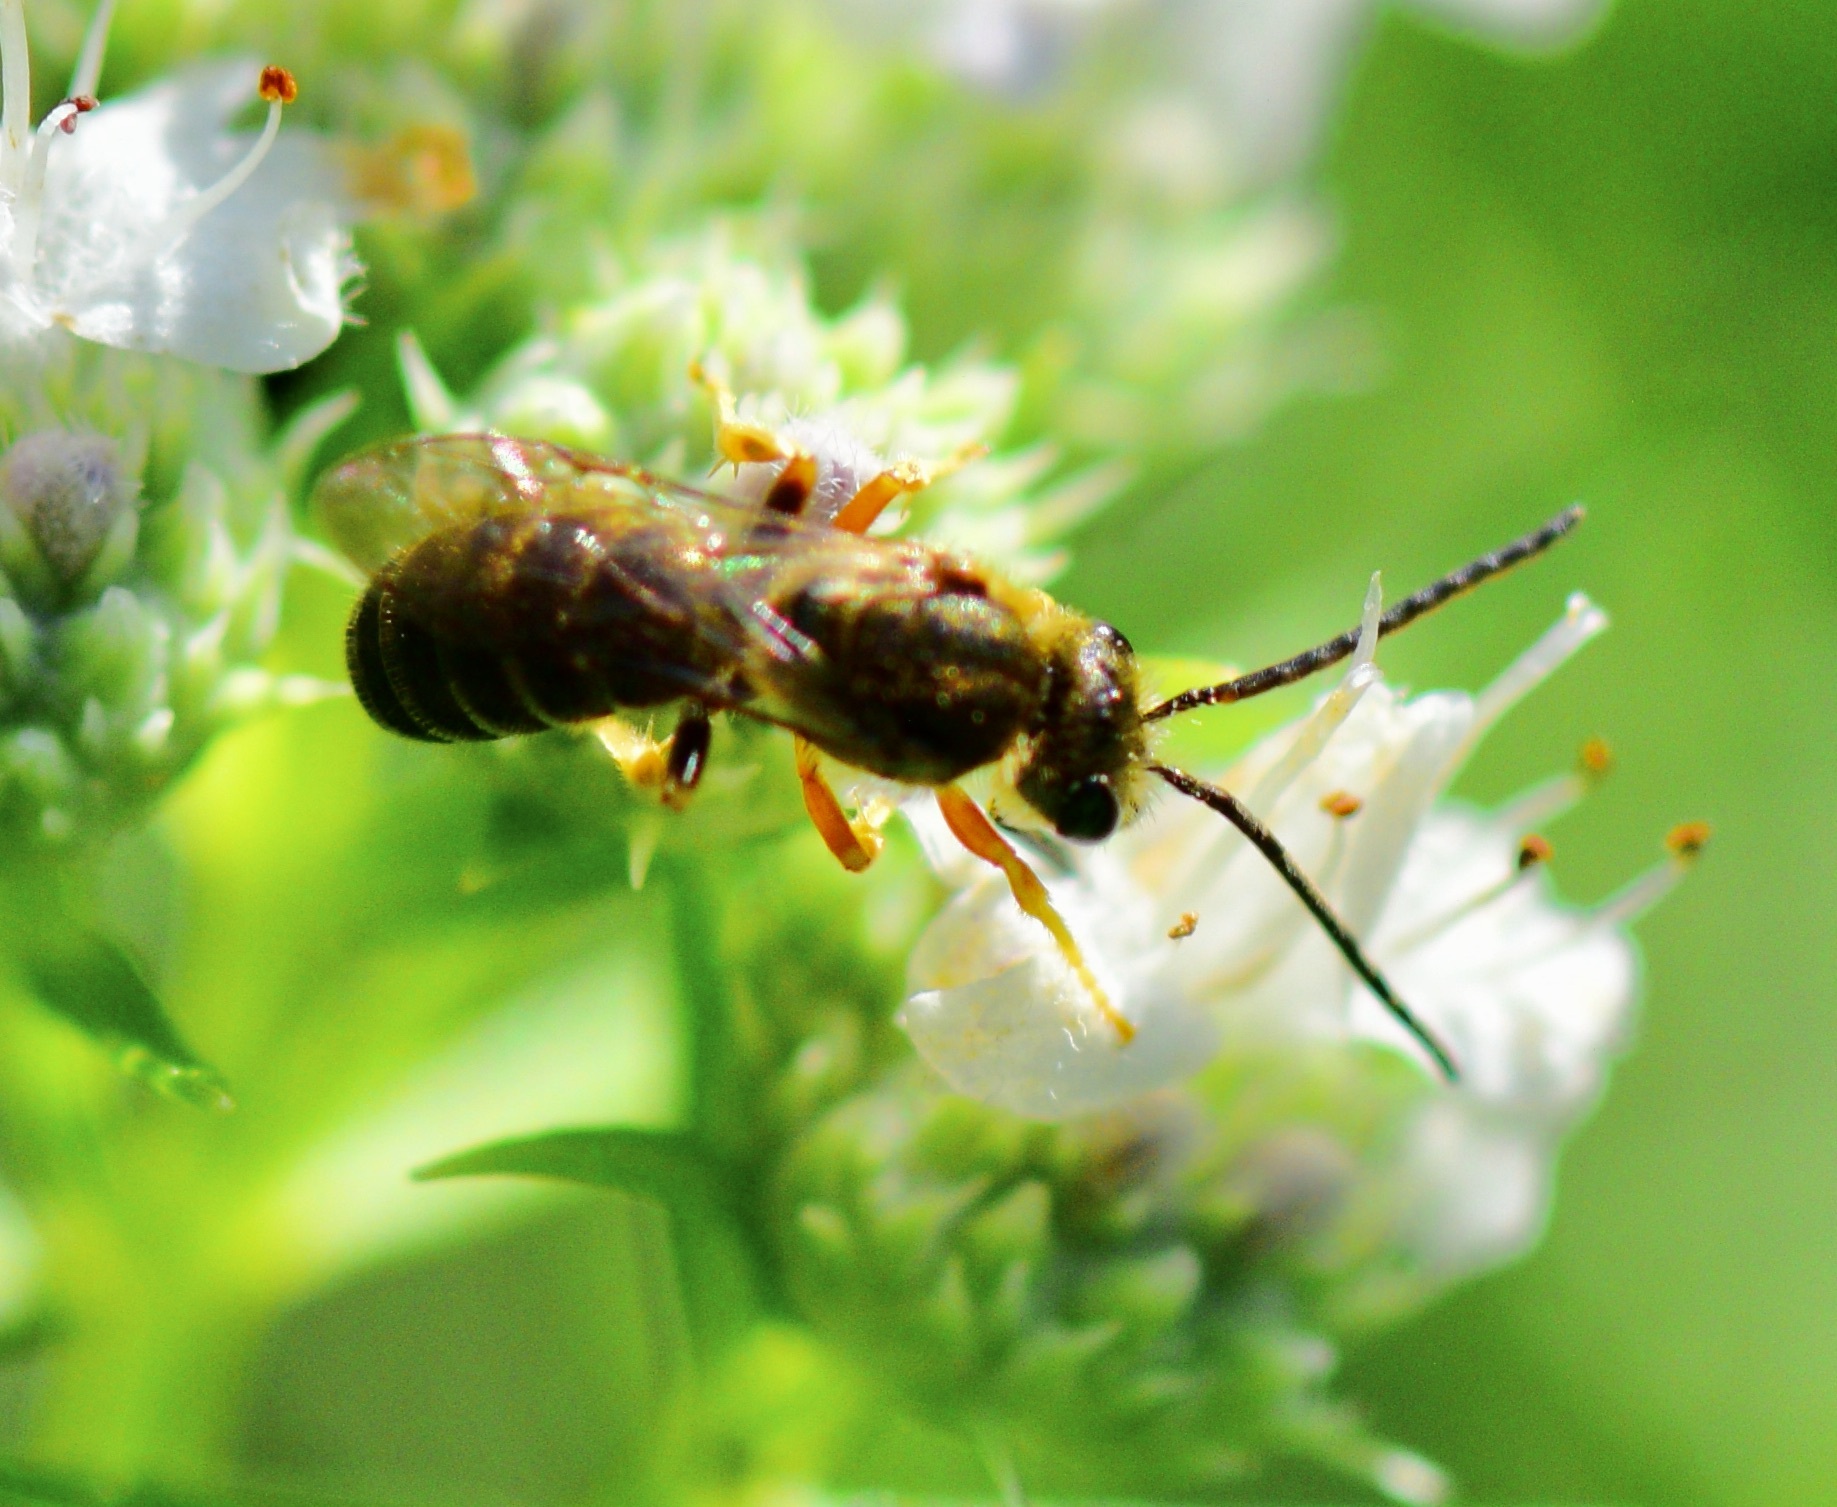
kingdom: Animalia
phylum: Arthropoda
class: Insecta
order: Hymenoptera
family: Halictidae
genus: Halictus
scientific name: Halictus confusus
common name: Southern bronze furrow bee
